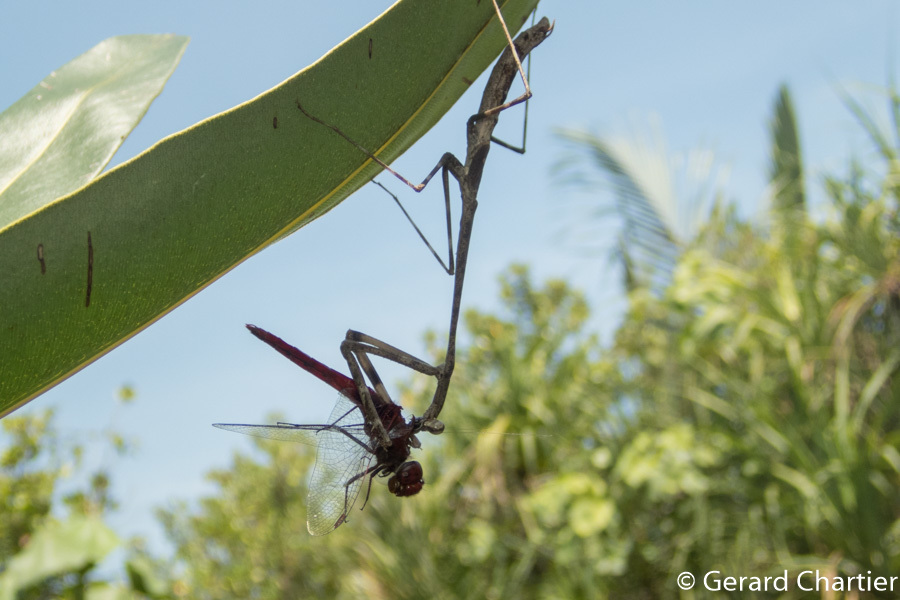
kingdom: Animalia
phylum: Arthropoda
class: Insecta
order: Odonata
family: Libellulidae
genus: Urothemis
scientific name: Urothemis signata
